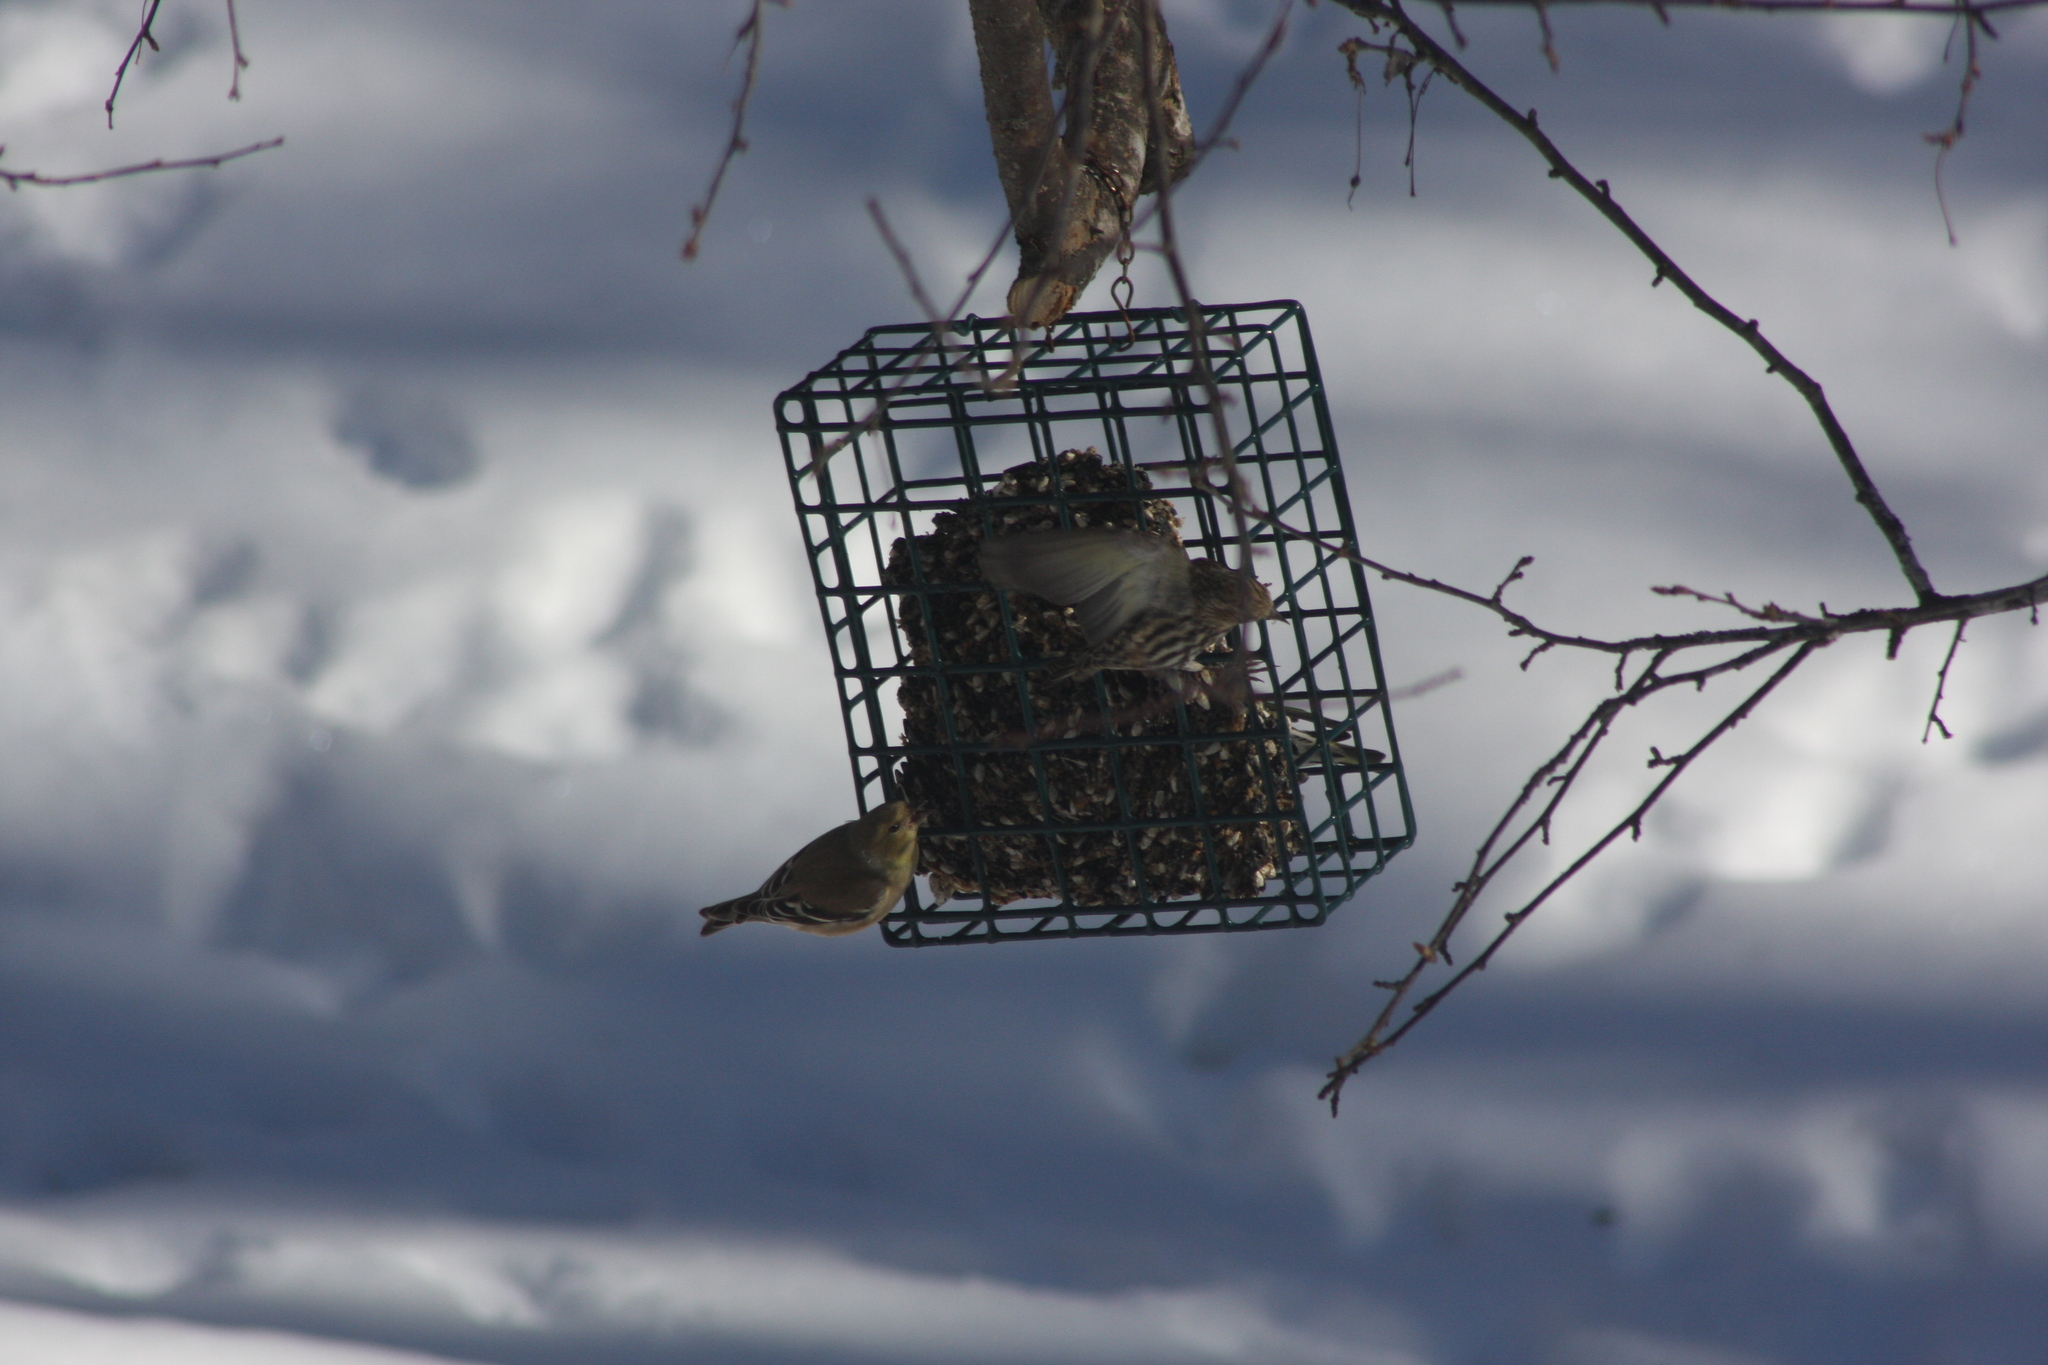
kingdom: Animalia
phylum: Chordata
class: Aves
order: Passeriformes
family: Fringillidae
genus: Spinus
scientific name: Spinus pinus
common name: Pine siskin
